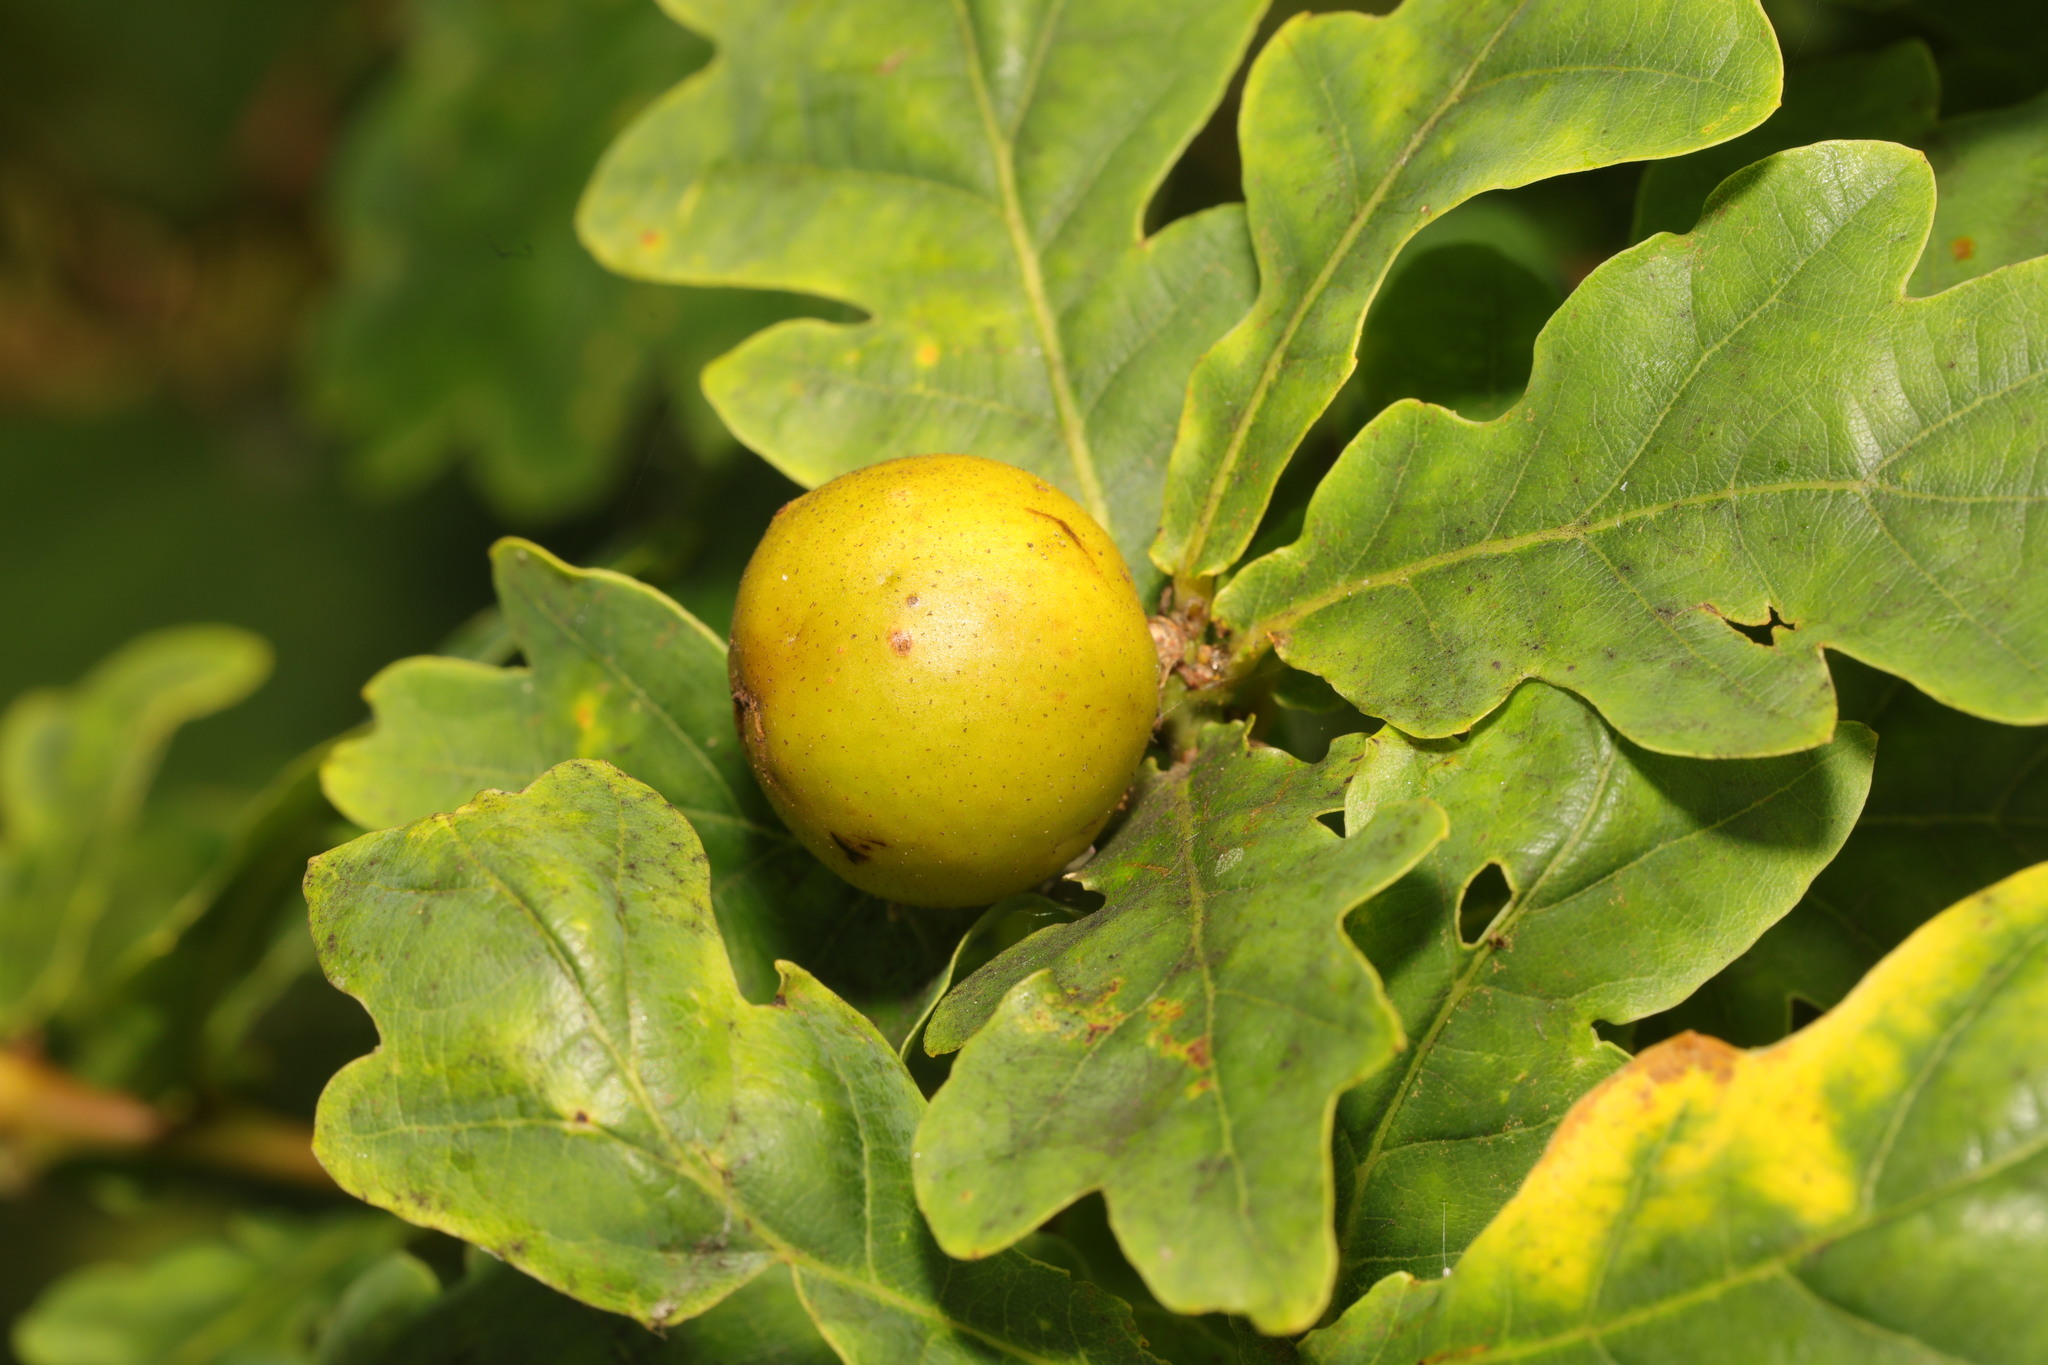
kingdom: Animalia
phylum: Arthropoda
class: Insecta
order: Hymenoptera
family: Cynipidae
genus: Andricus
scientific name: Andricus kollari
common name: Marble gall
